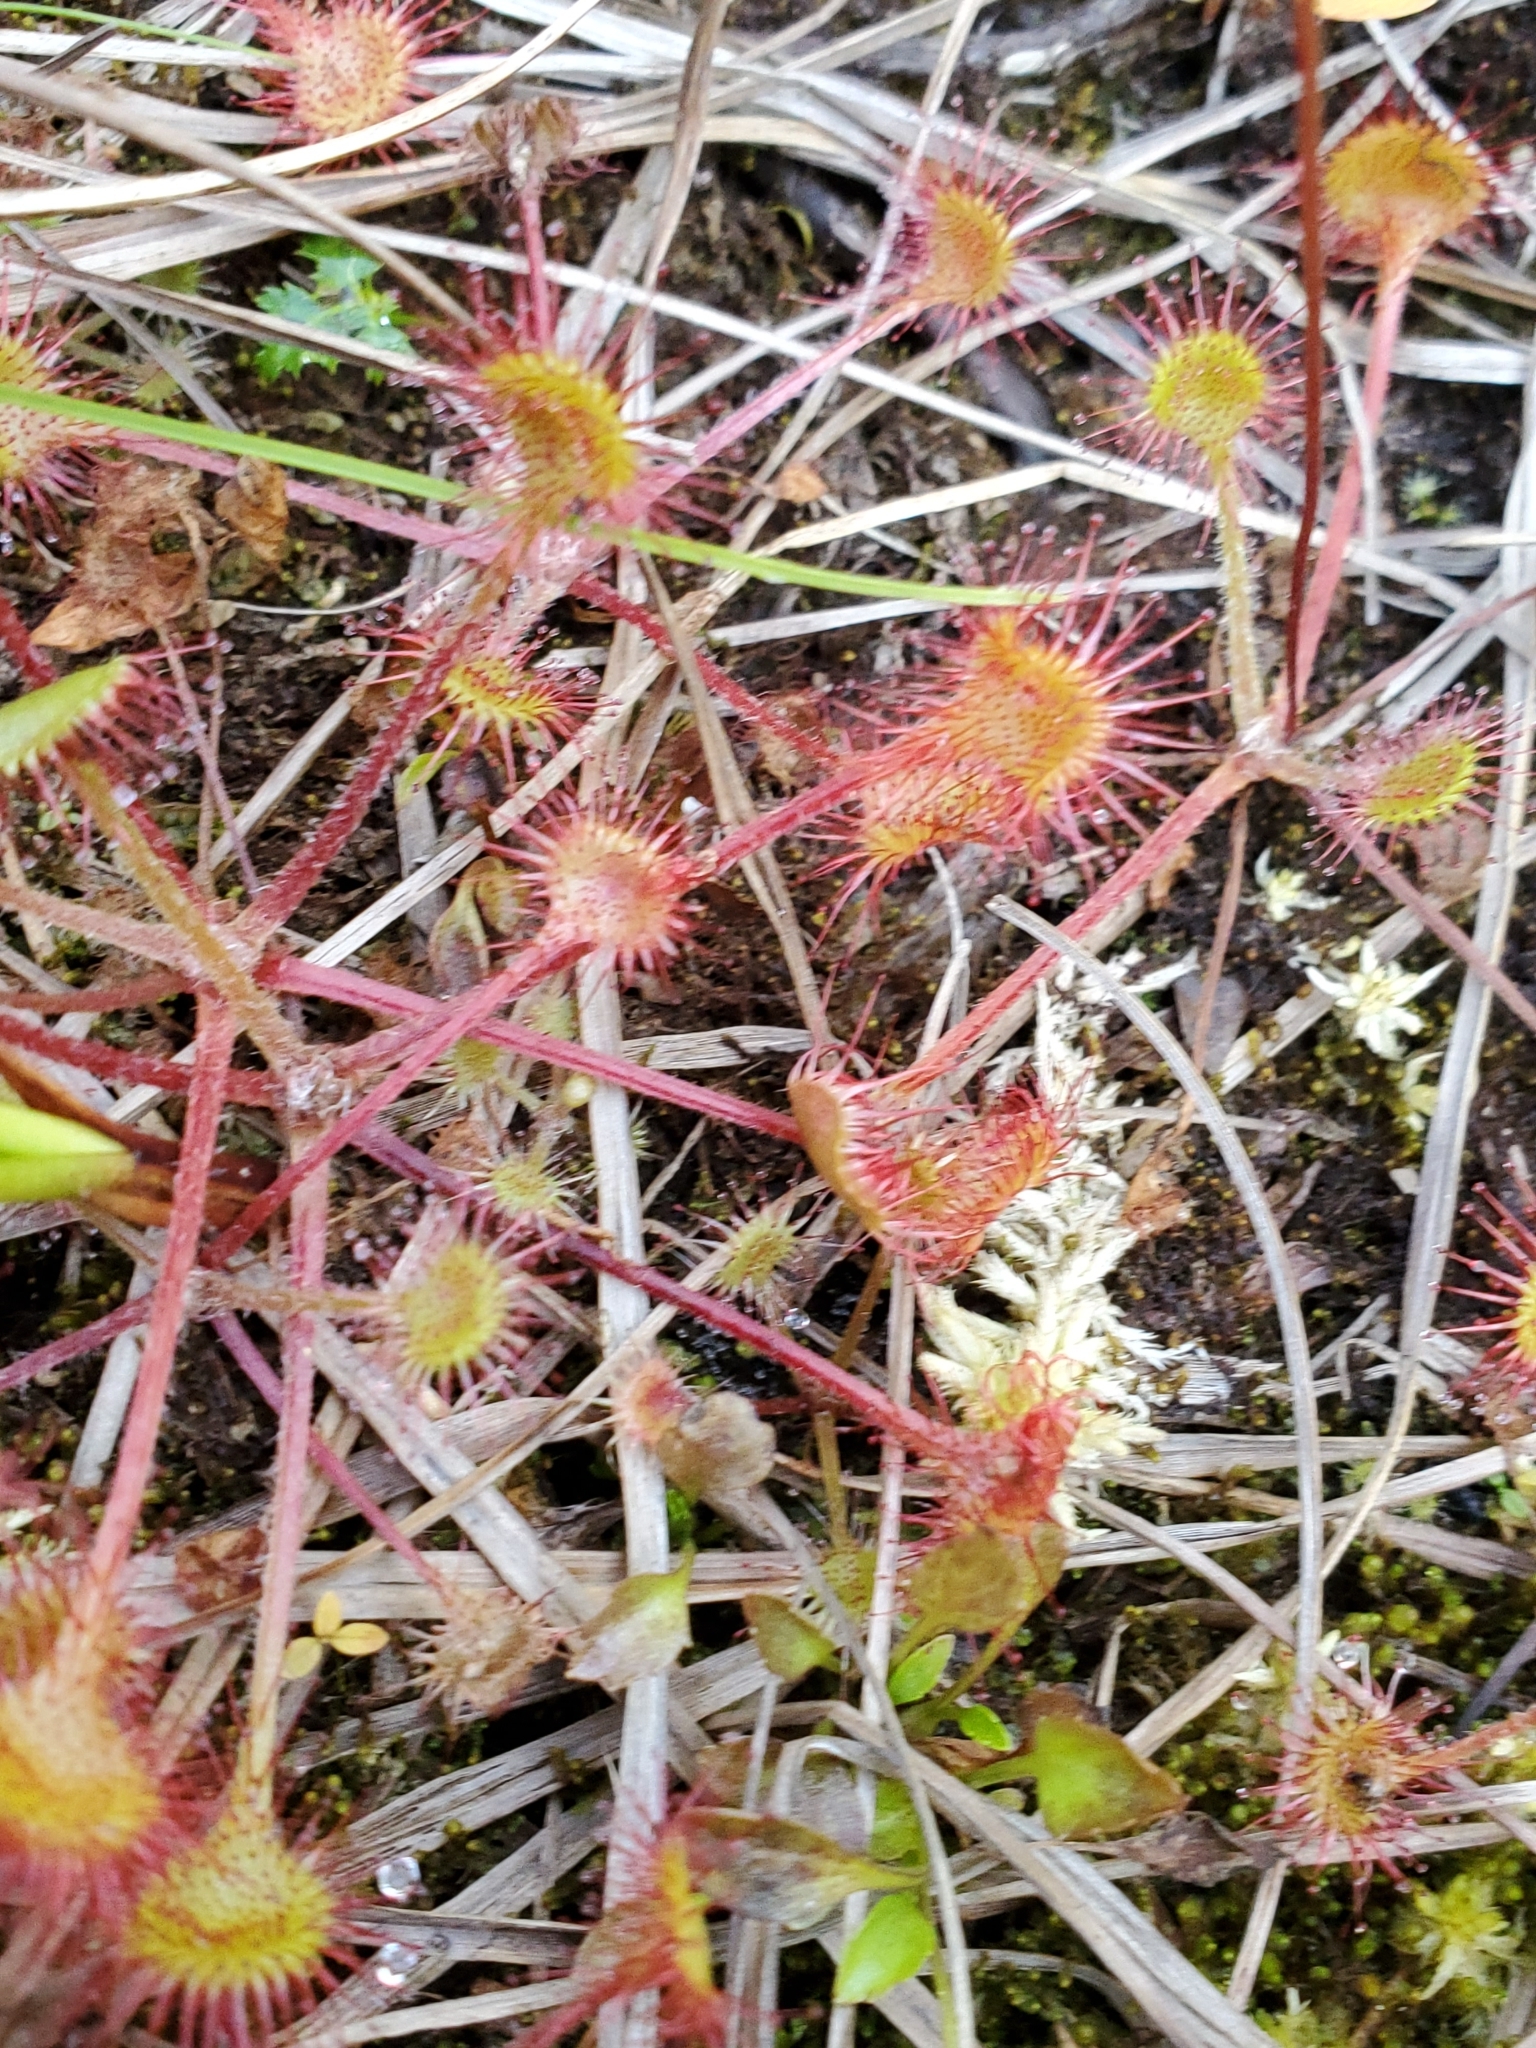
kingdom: Plantae
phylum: Tracheophyta
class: Magnoliopsida
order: Caryophyllales
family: Droseraceae
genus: Drosera
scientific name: Drosera rotundifolia
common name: Round-leaved sundew
